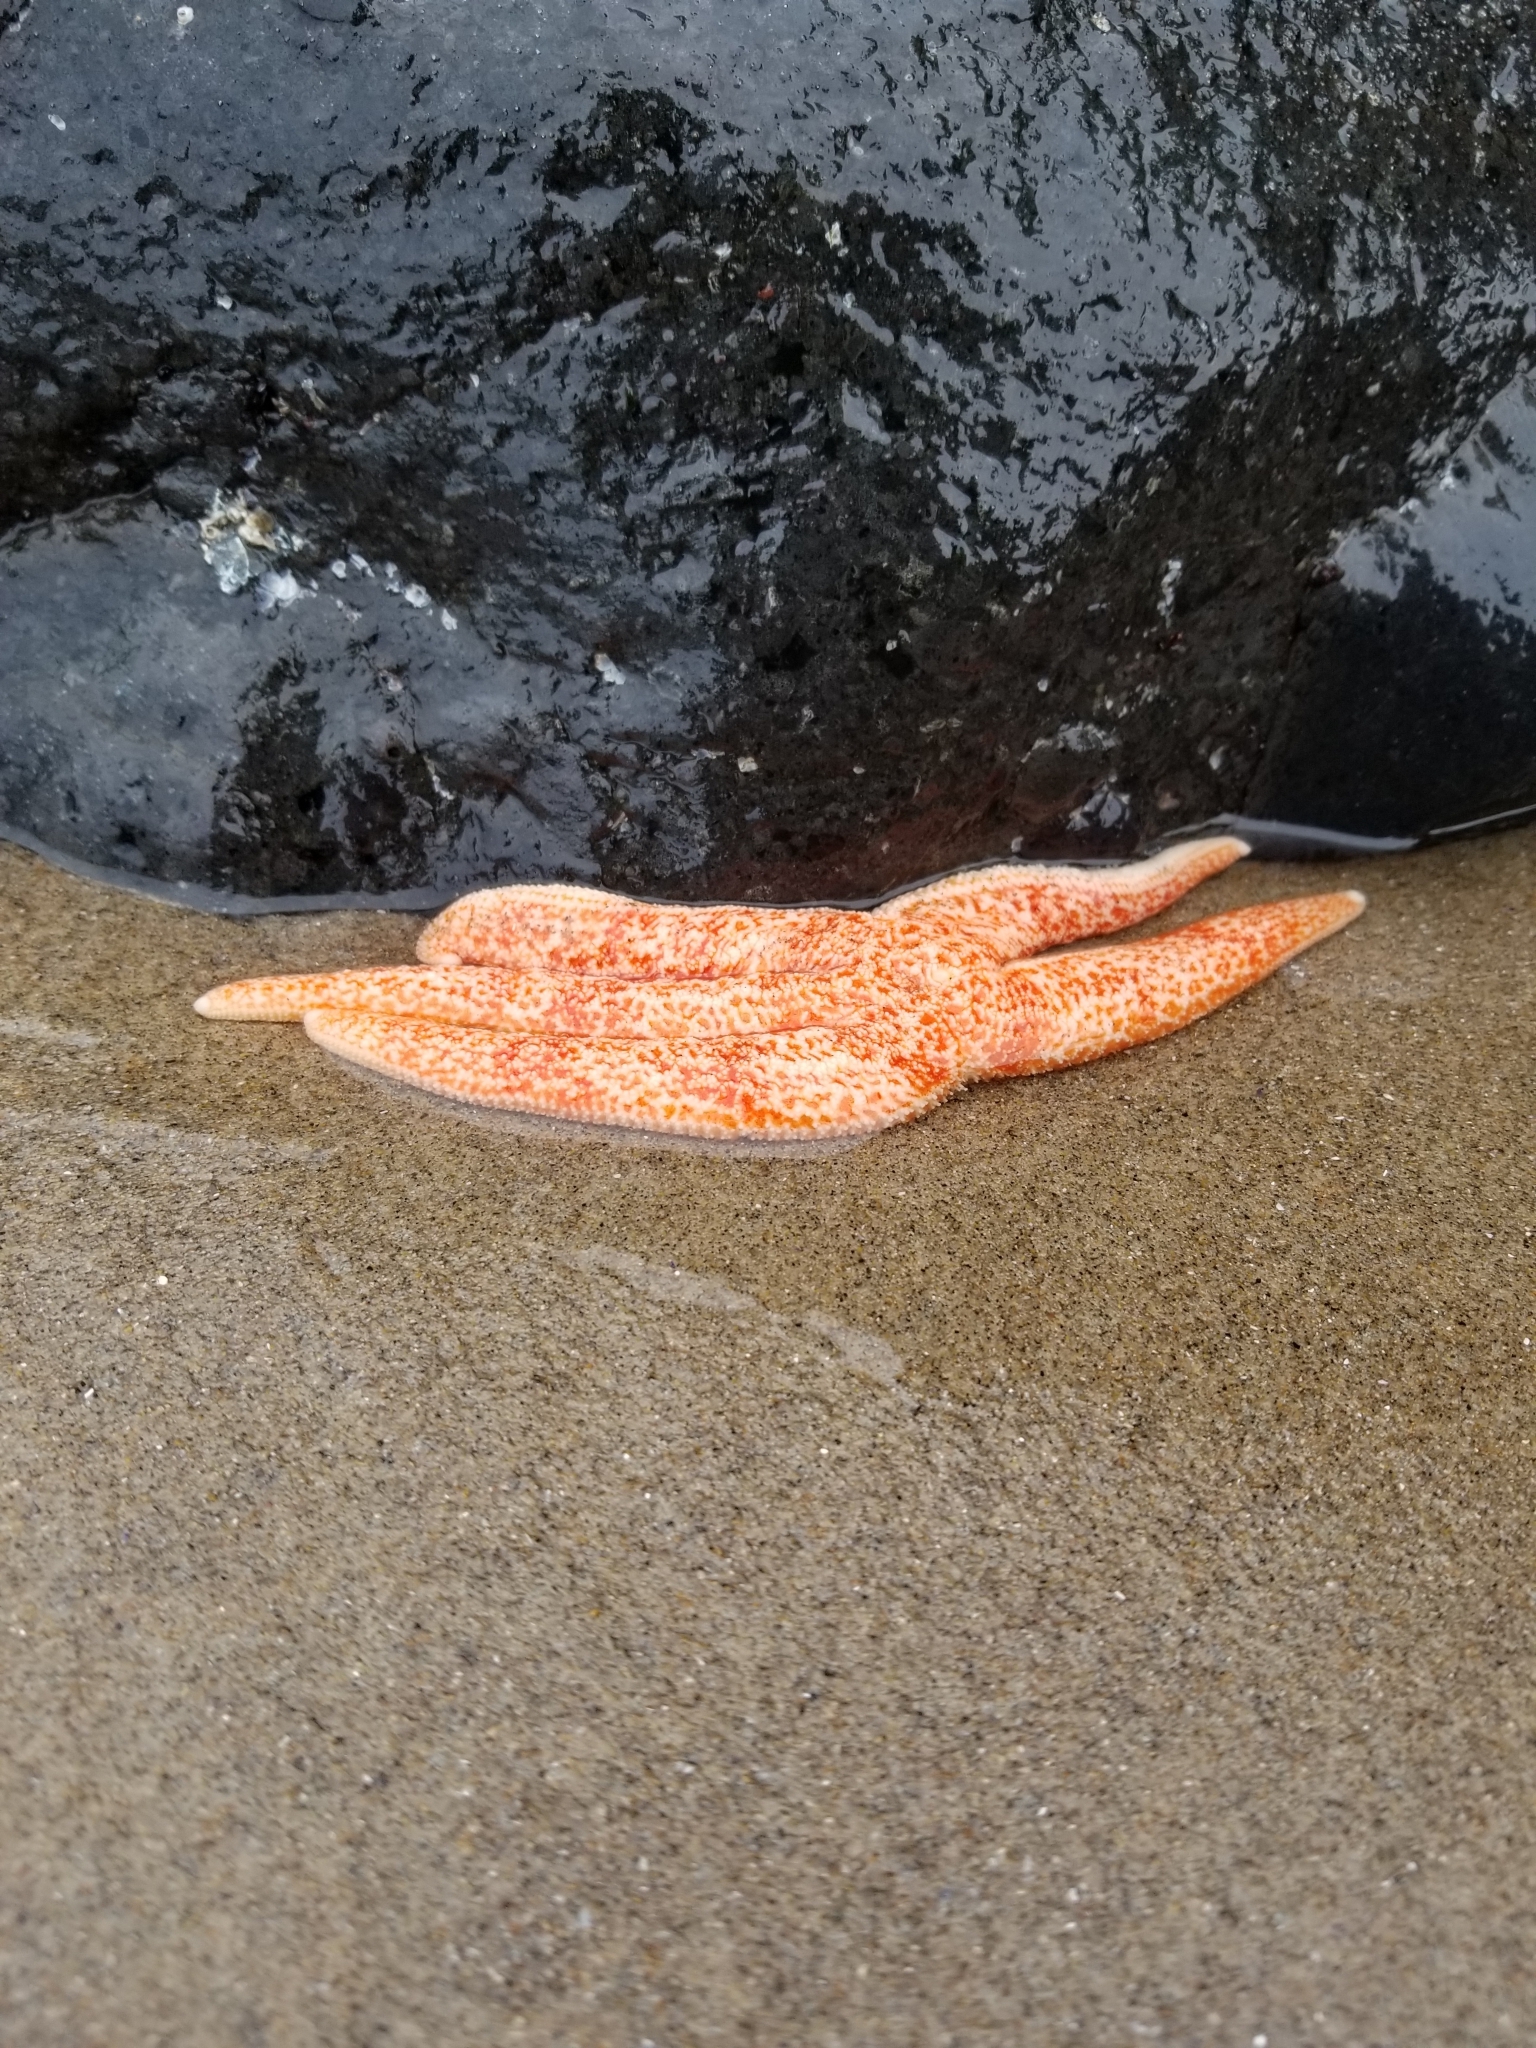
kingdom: Animalia
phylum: Echinodermata
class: Asteroidea
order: Forcipulatida
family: Asteriidae
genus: Evasterias
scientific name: Evasterias troschelii
